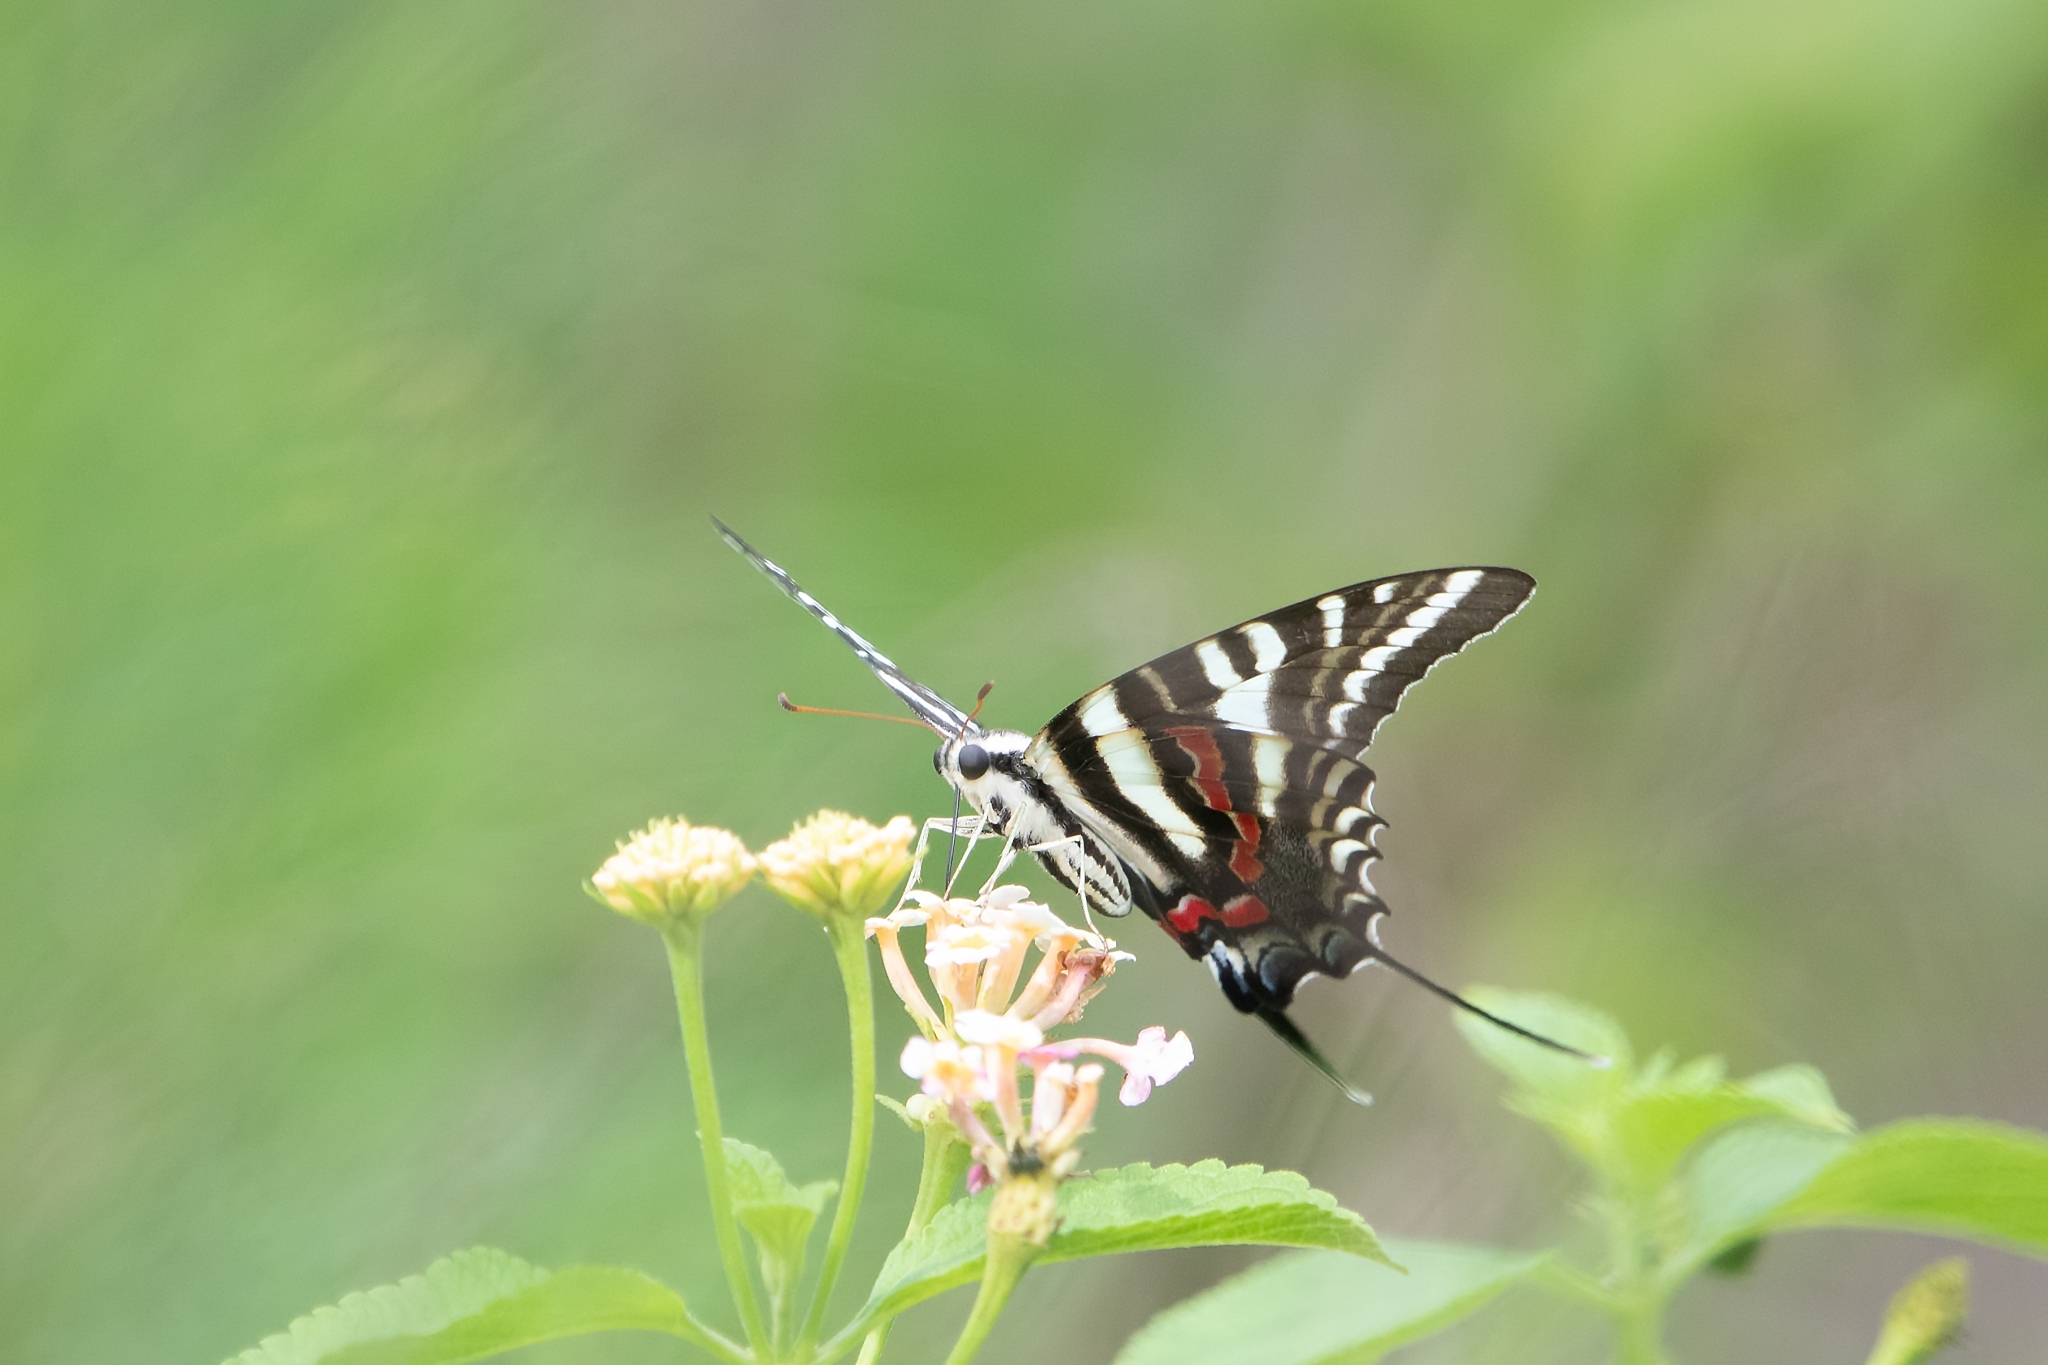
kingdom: Animalia
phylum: Arthropoda
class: Insecta
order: Lepidoptera
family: Papilionidae
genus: Protographium
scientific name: Protographium marcellus
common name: Zebra swallowtail
